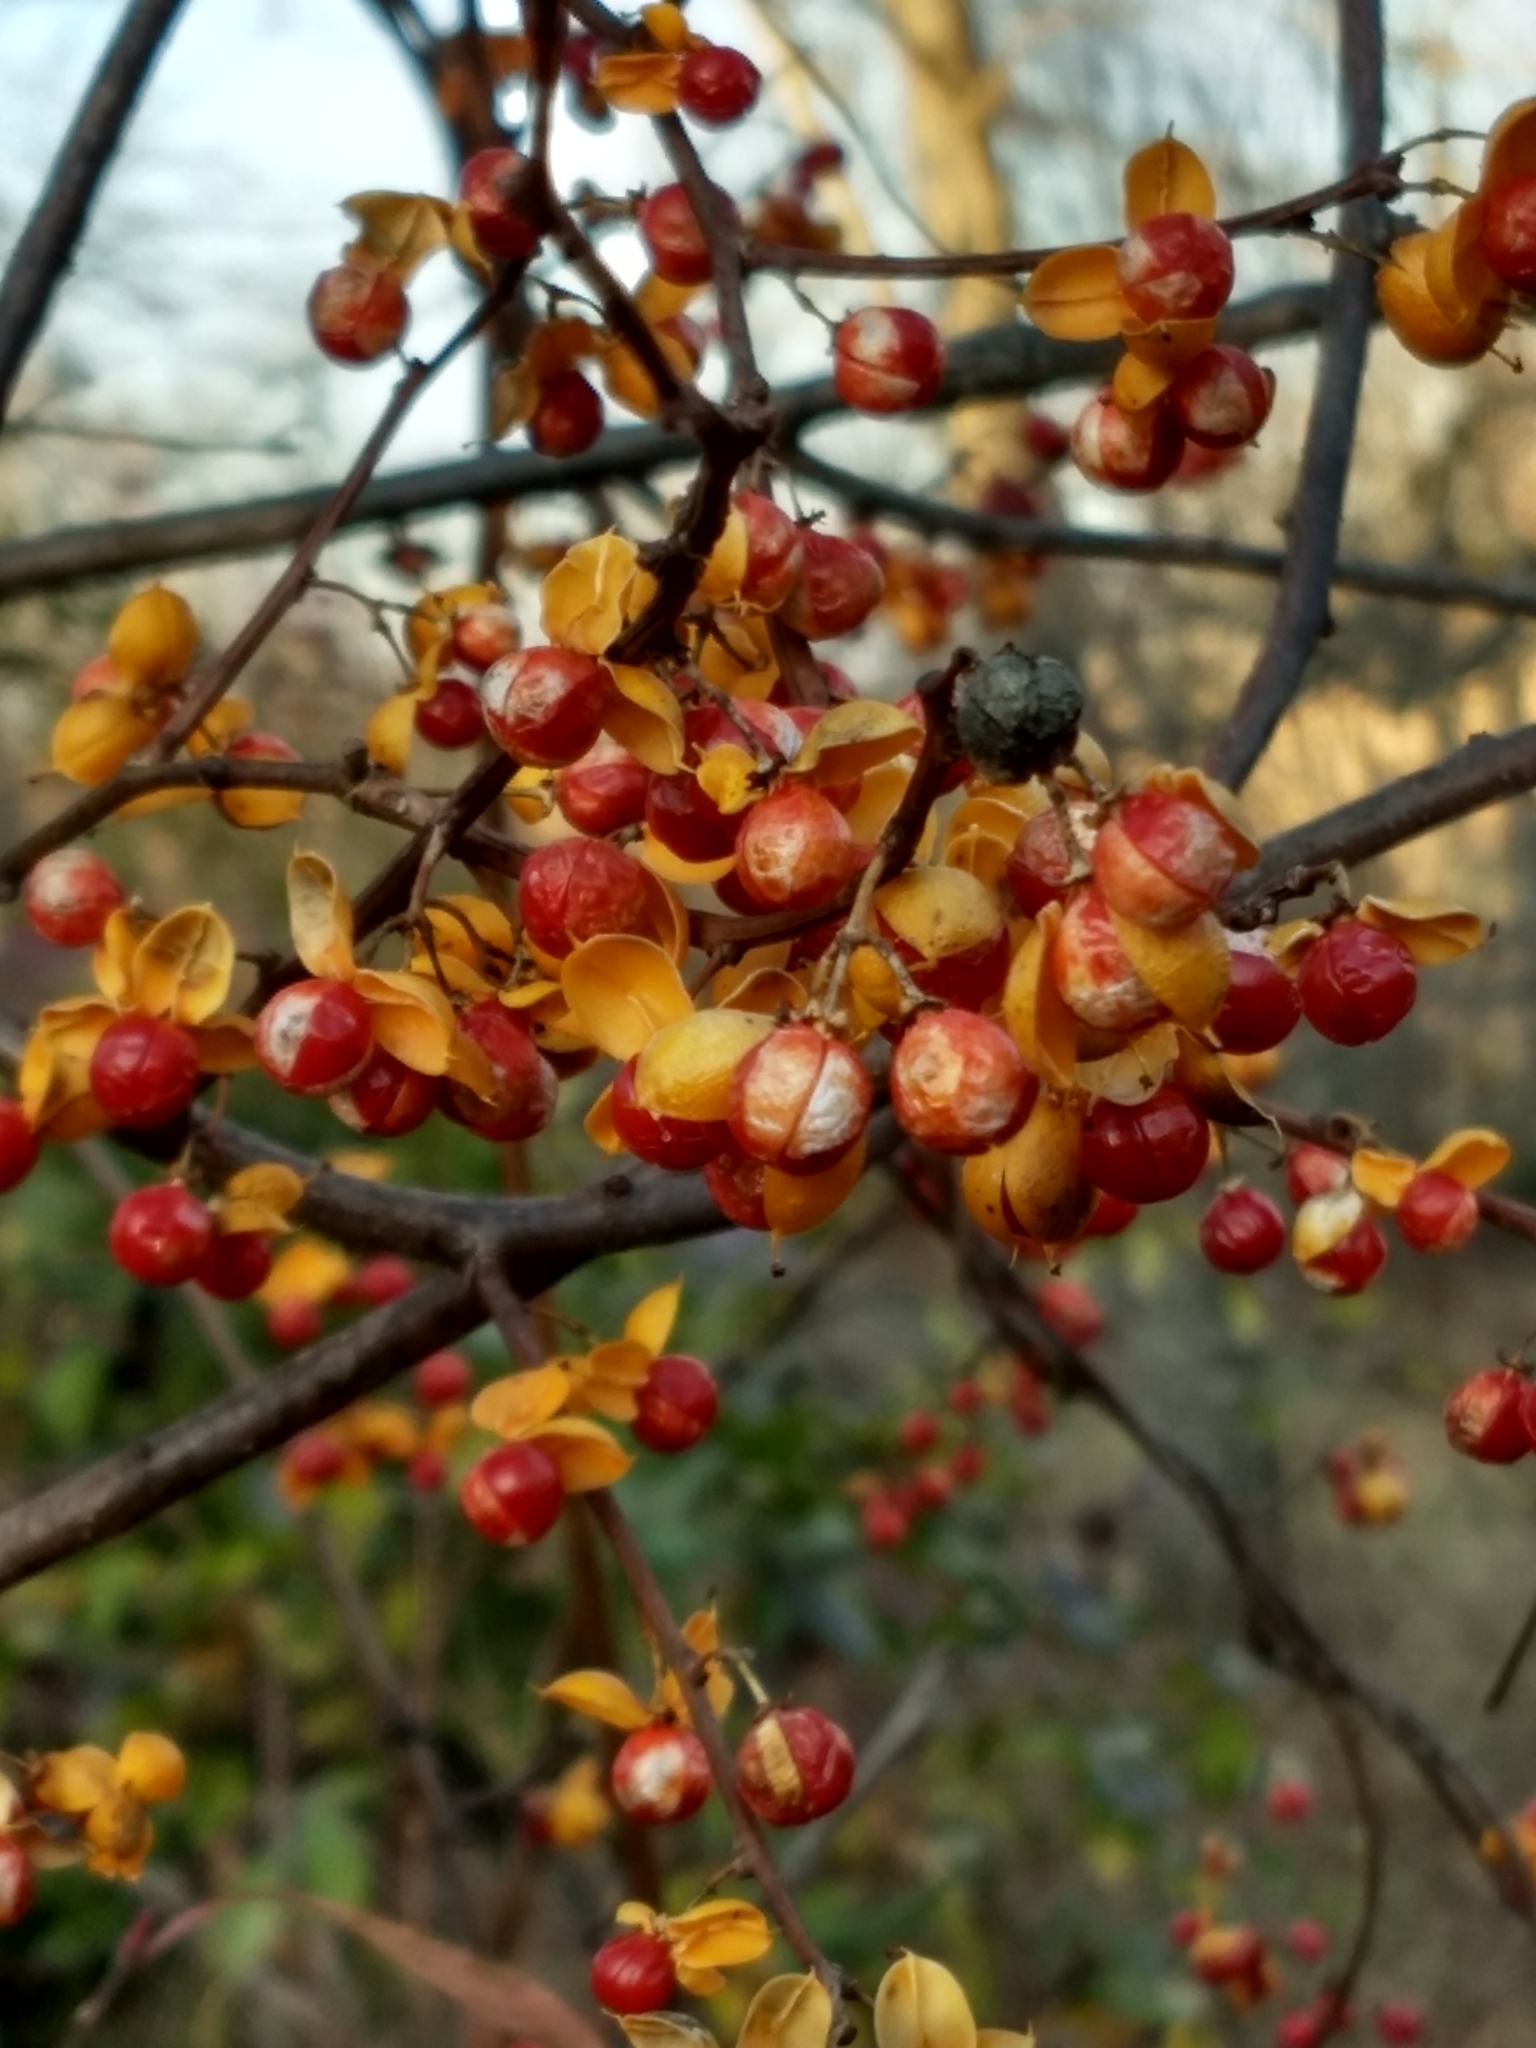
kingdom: Plantae
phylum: Tracheophyta
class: Magnoliopsida
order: Celastrales
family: Celastraceae
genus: Celastrus
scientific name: Celastrus orbiculatus
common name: Oriental bittersweet
